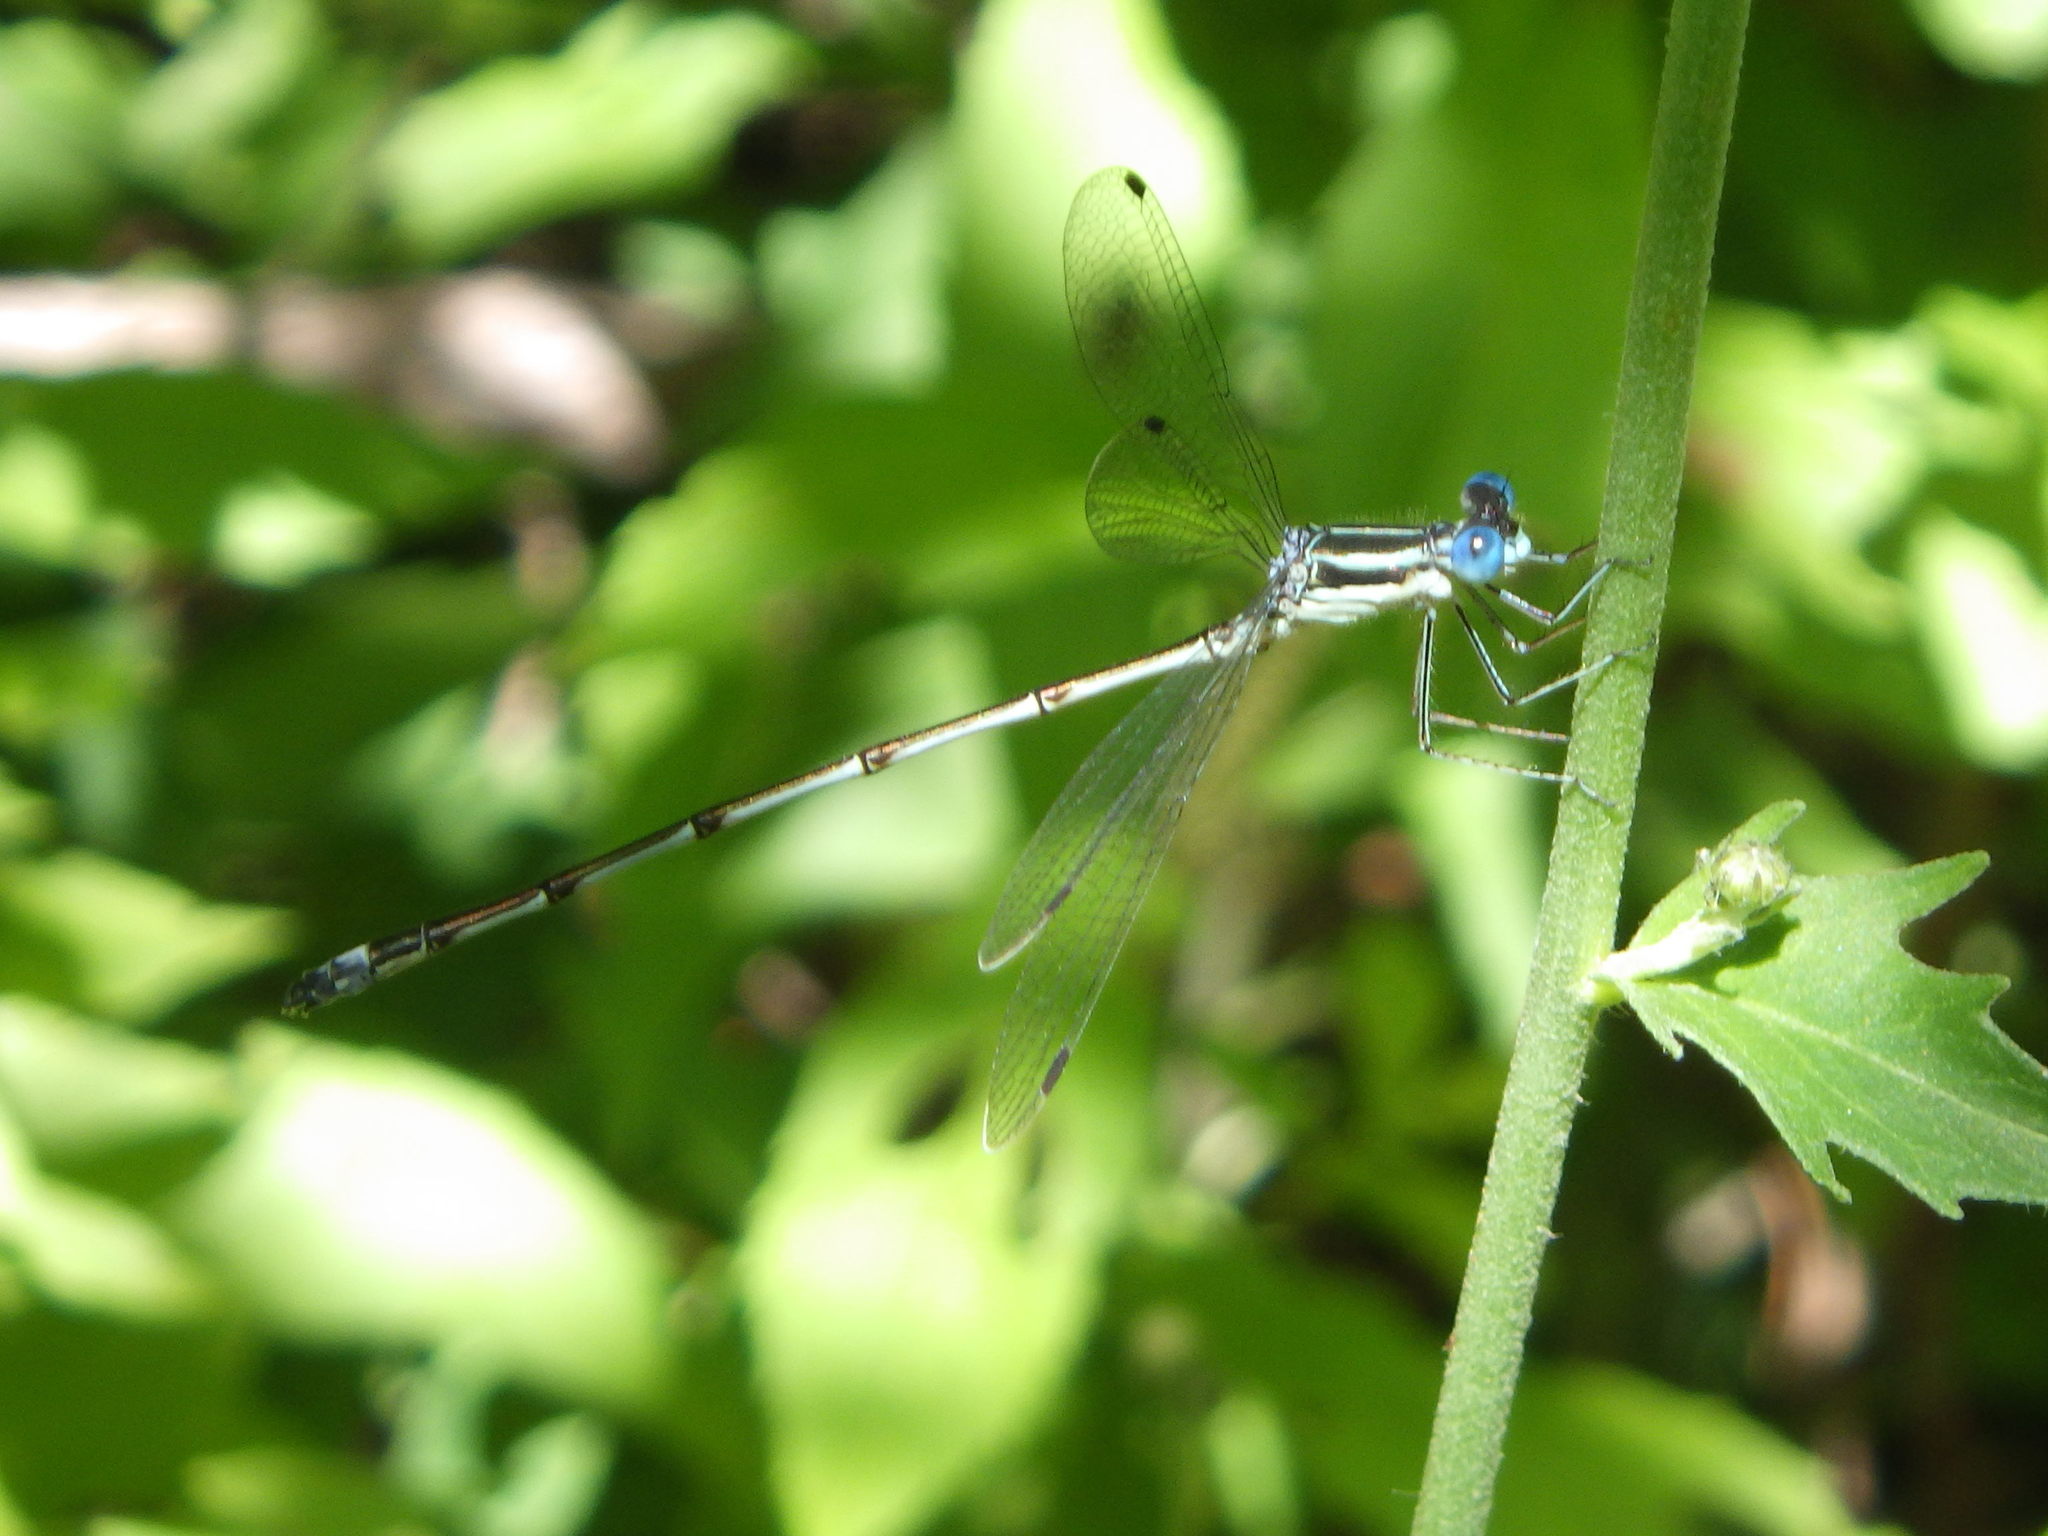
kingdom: Animalia
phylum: Arthropoda
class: Insecta
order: Odonata
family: Lestidae
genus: Lestes
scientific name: Lestes rectangularis
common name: Slender spreadwing
